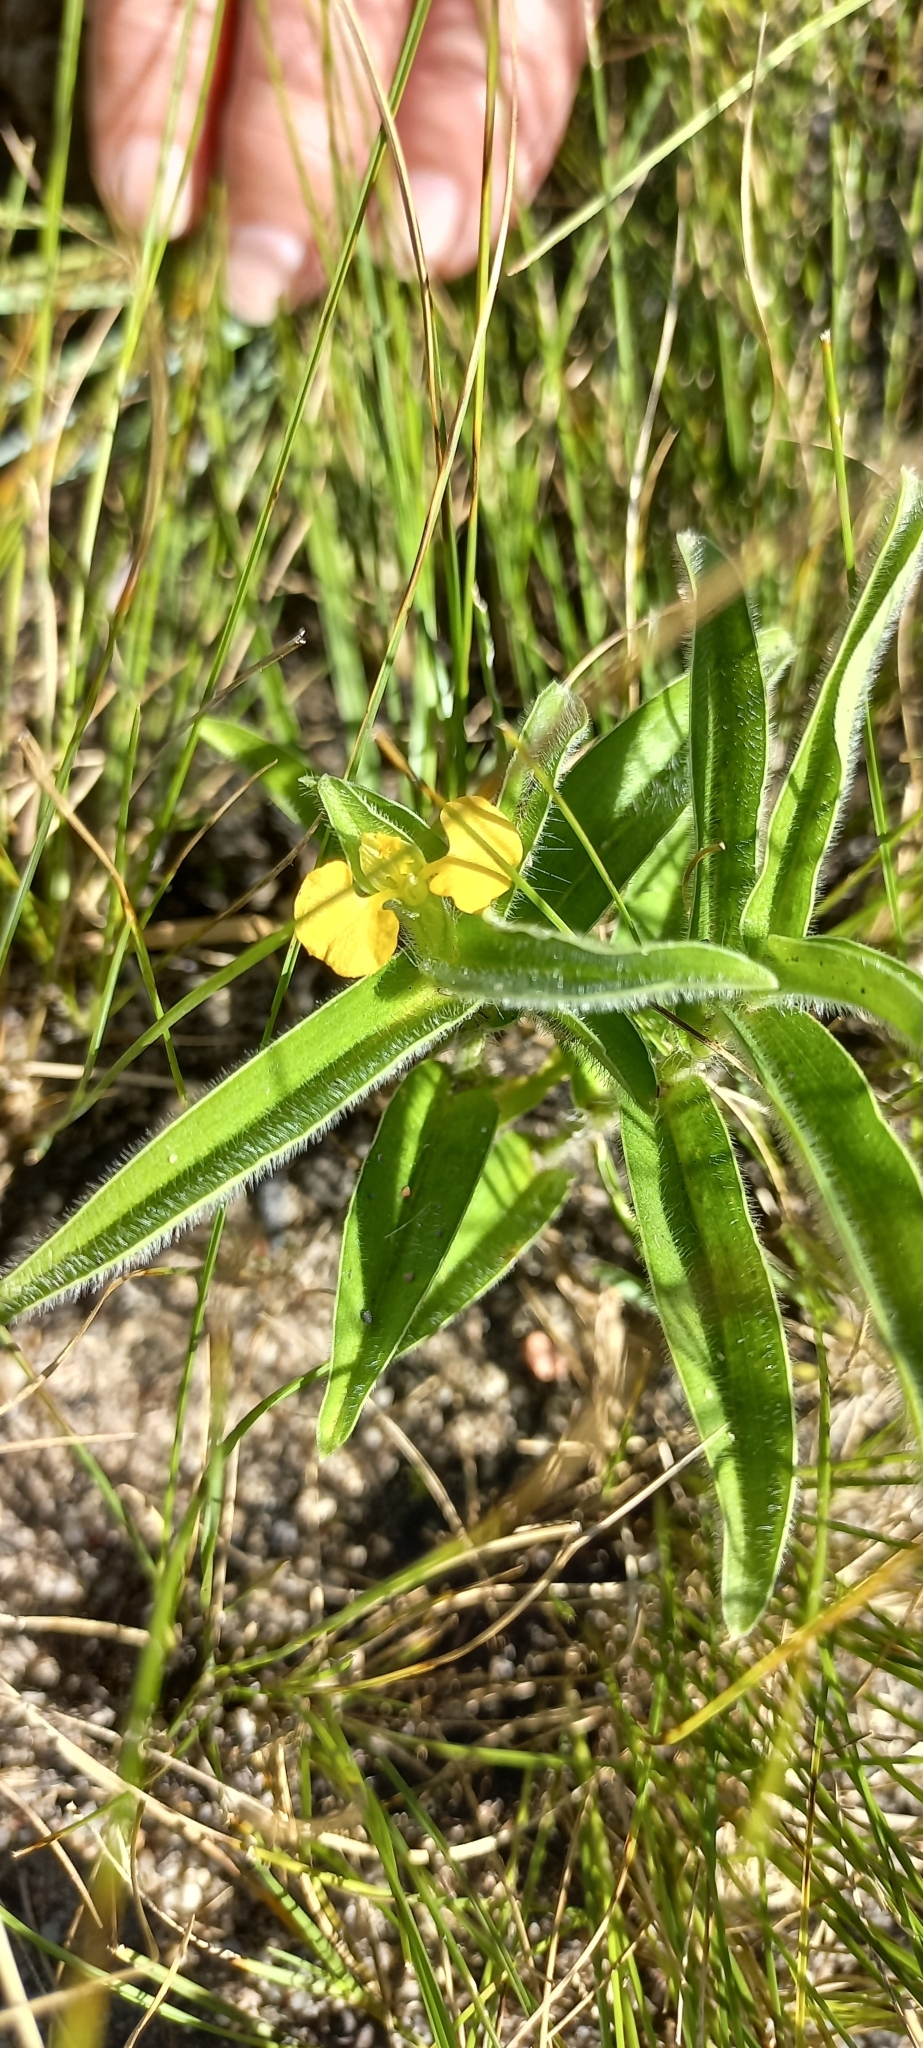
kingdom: Plantae
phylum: Tracheophyta
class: Liliopsida
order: Commelinales
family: Commelinaceae
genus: Commelina
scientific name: Commelina africana
